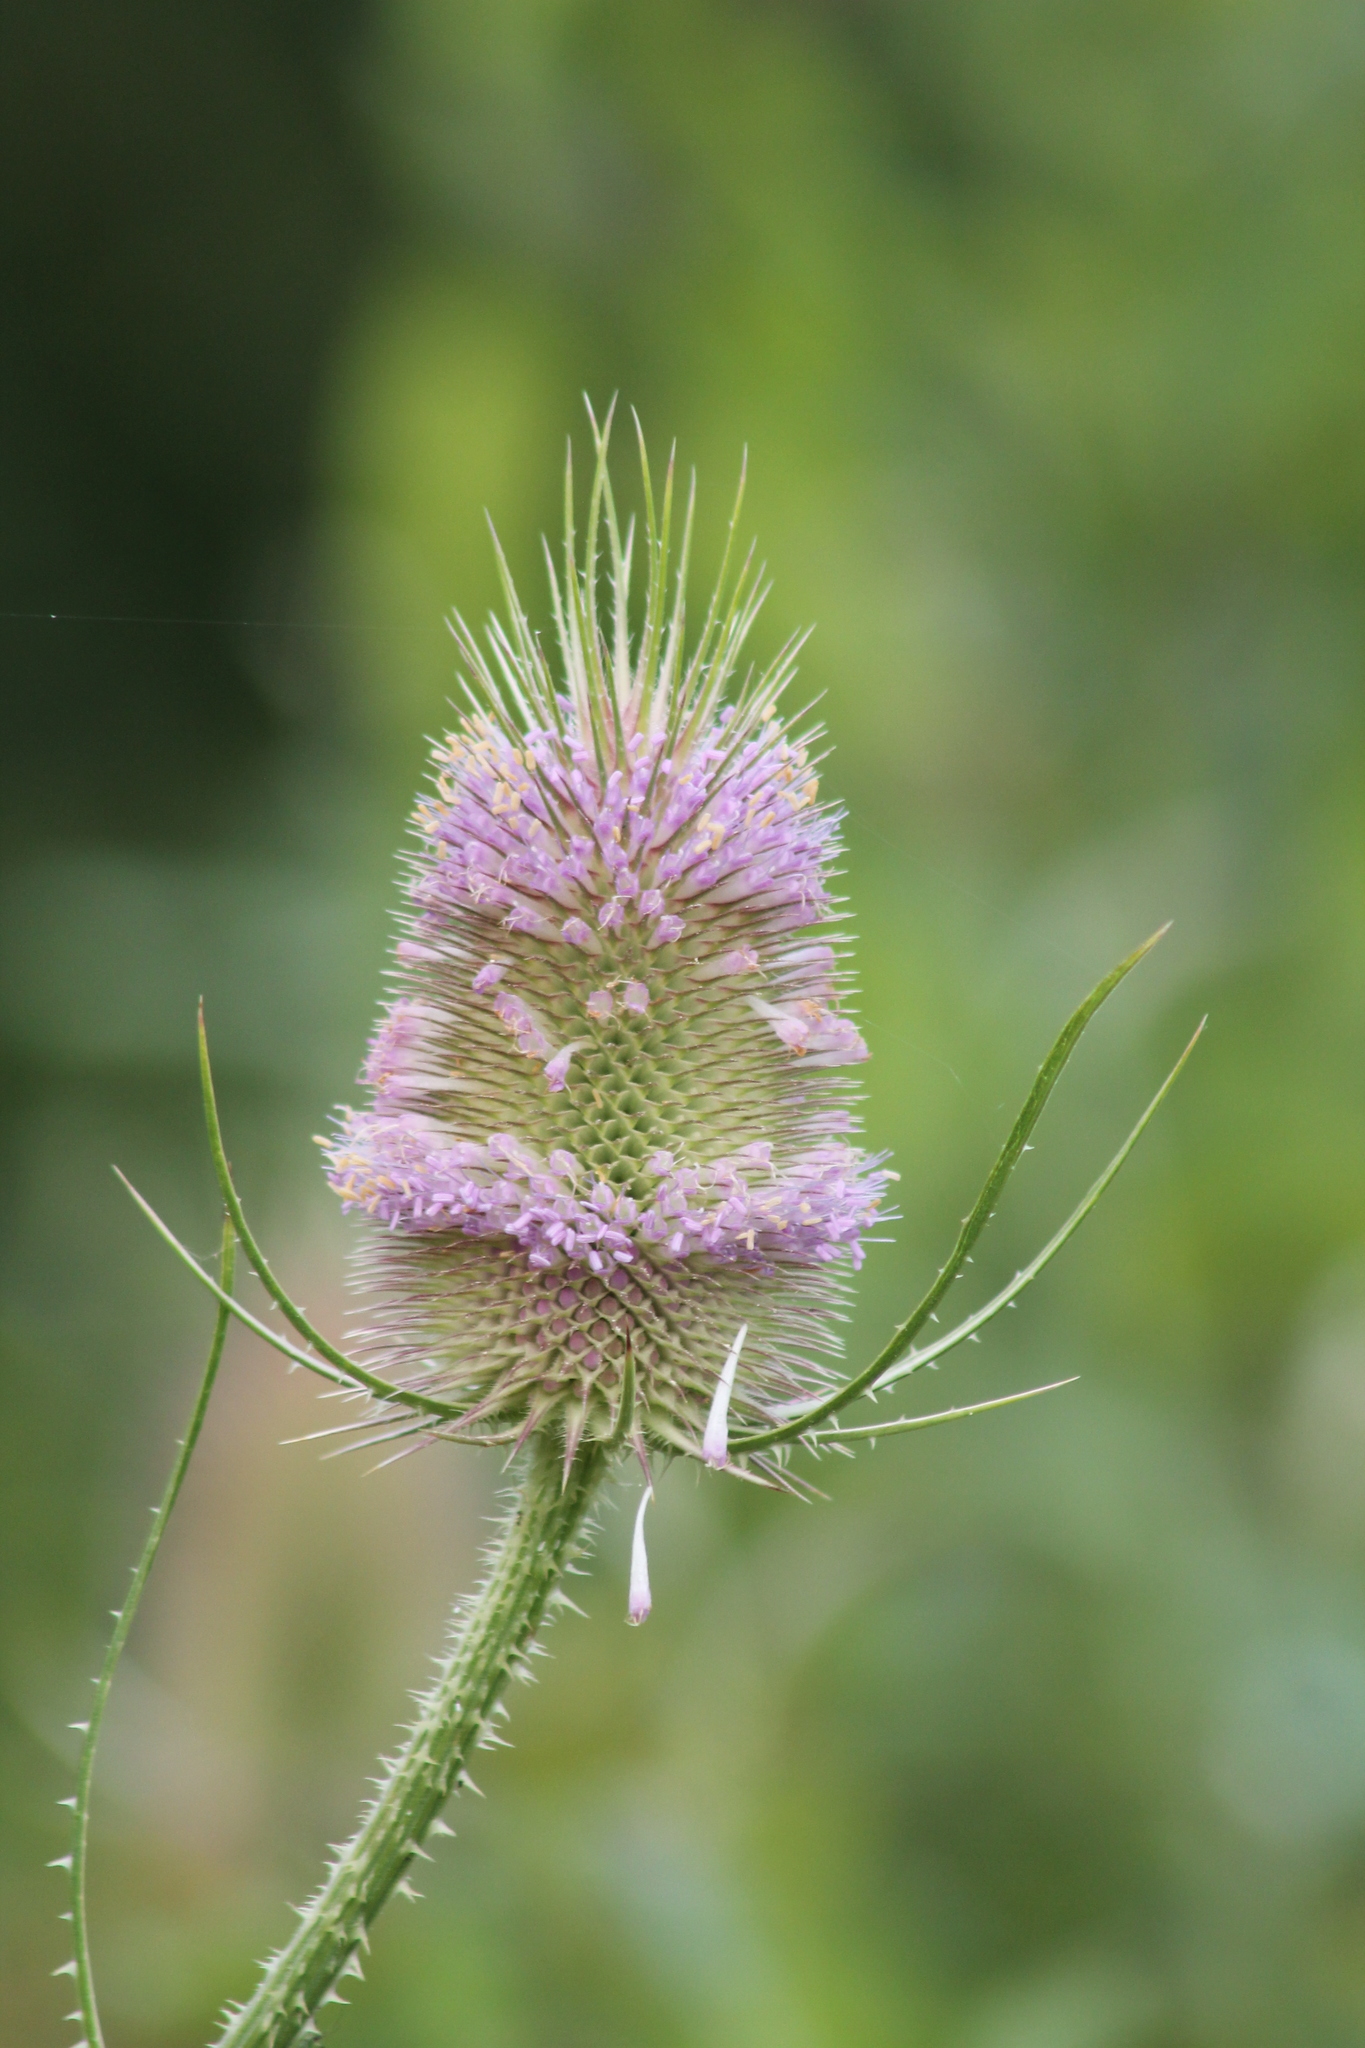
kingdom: Plantae
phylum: Tracheophyta
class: Magnoliopsida
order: Dipsacales
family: Caprifoliaceae
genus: Dipsacus
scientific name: Dipsacus fullonum
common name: Teasel
